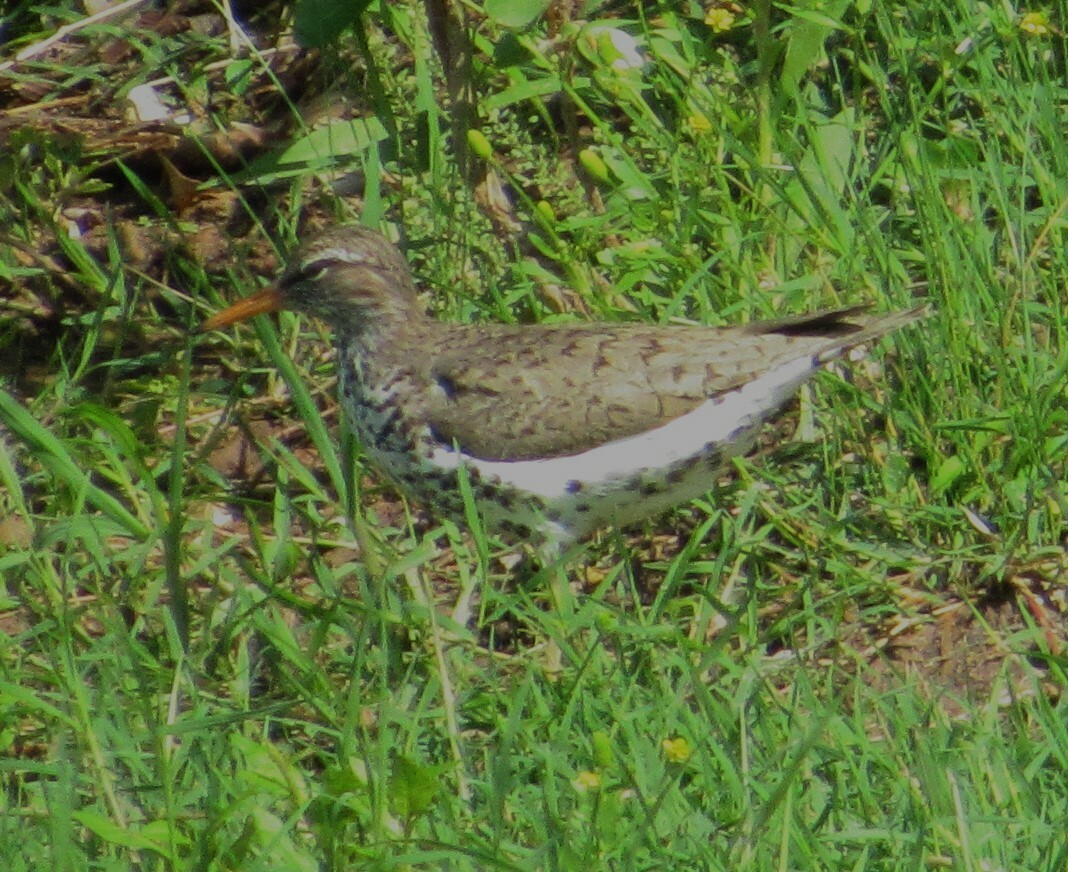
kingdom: Animalia
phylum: Chordata
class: Aves
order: Charadriiformes
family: Scolopacidae
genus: Actitis
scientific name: Actitis macularius
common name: Spotted sandpiper
